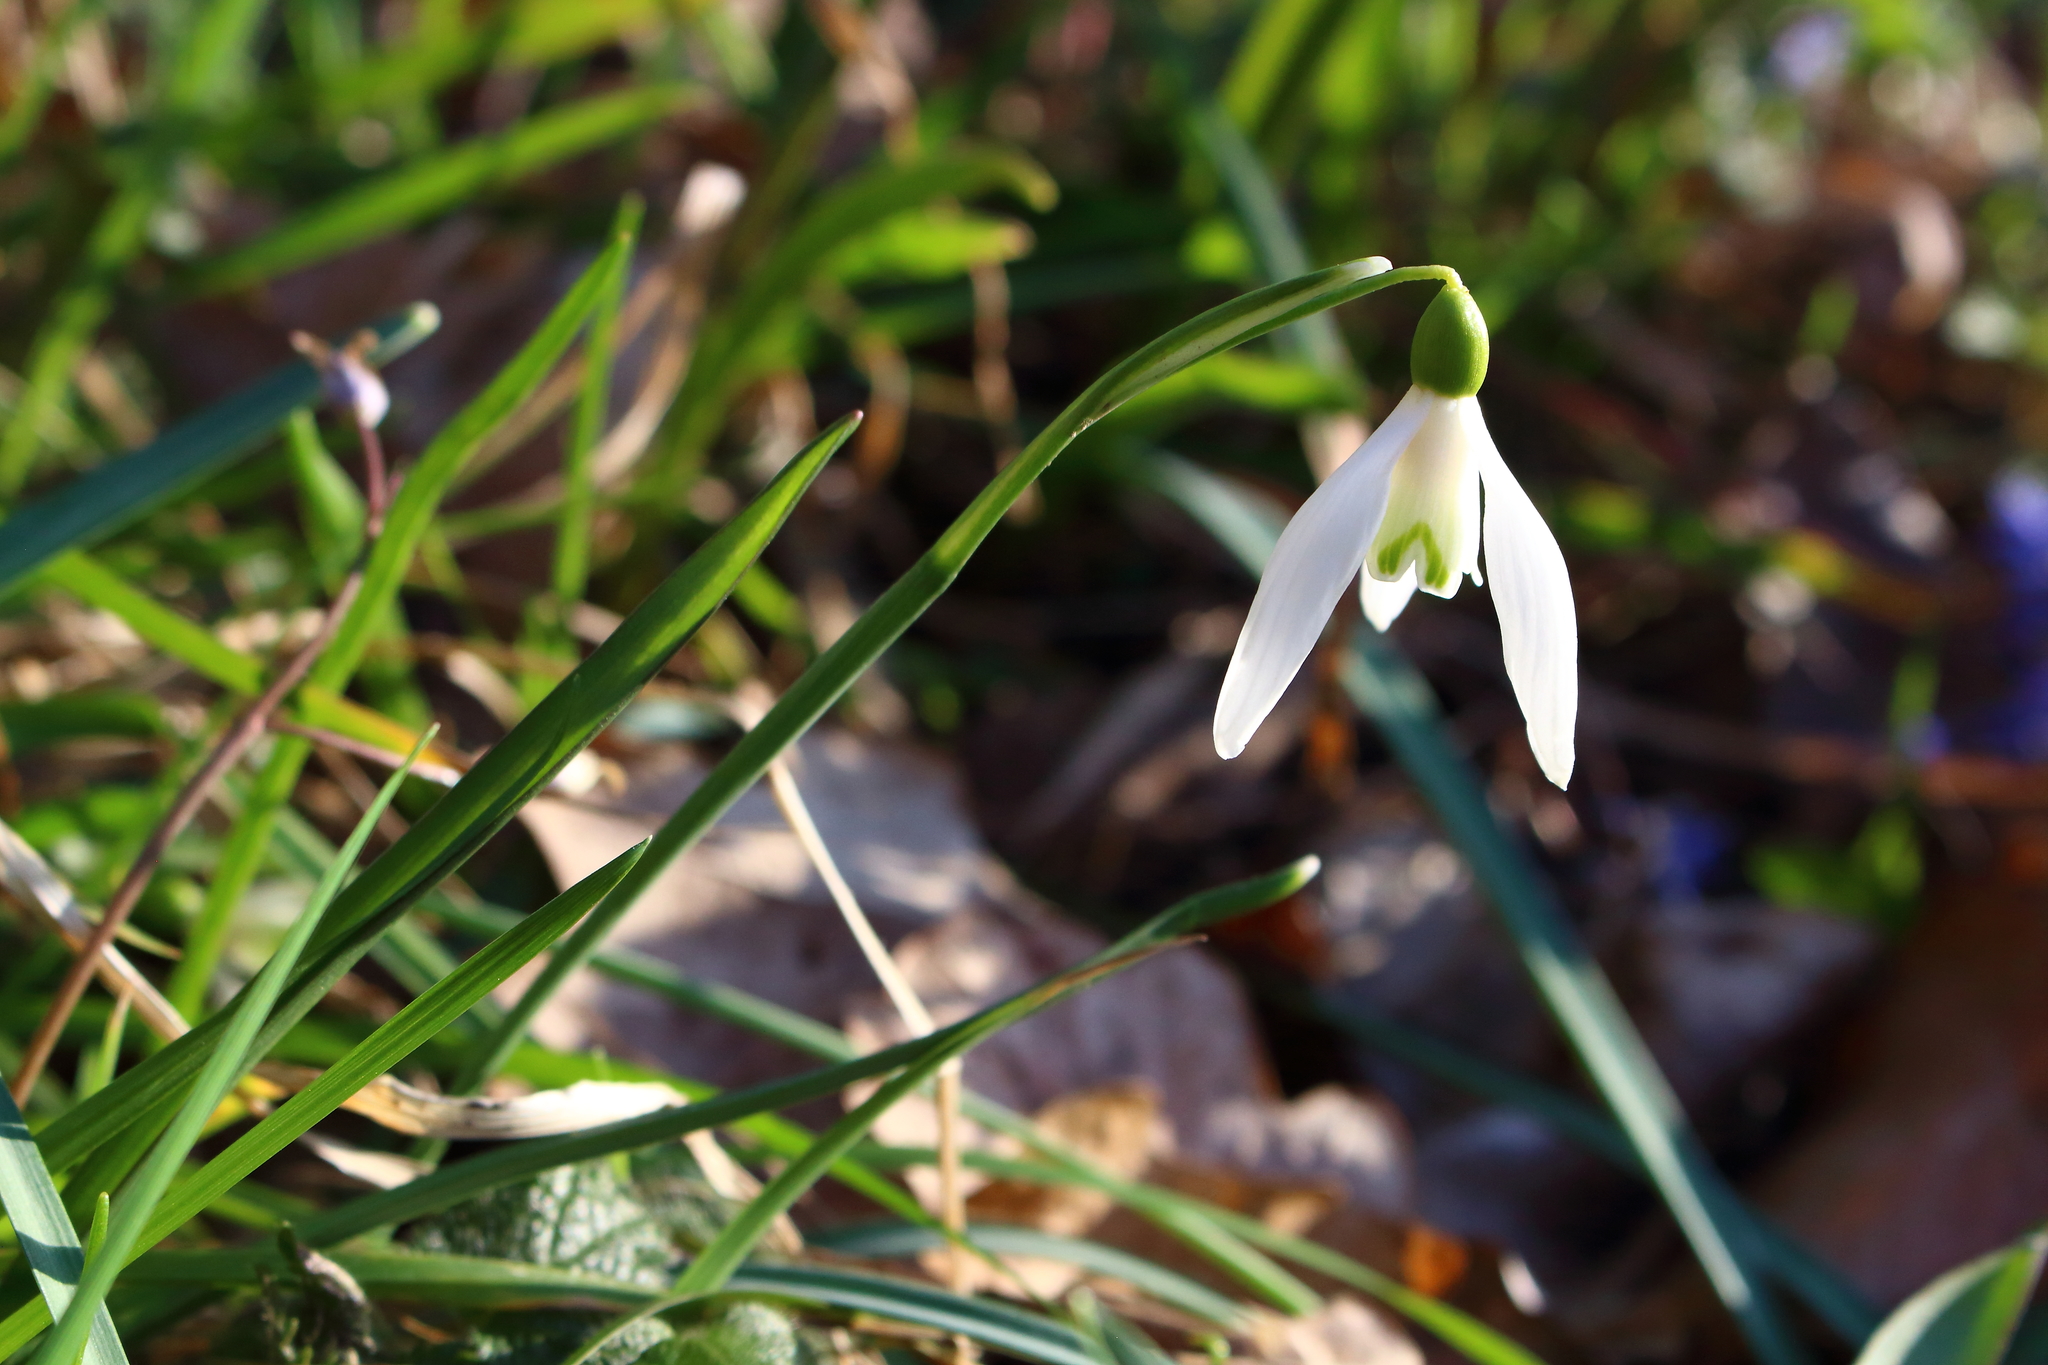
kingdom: Plantae
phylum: Tracheophyta
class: Liliopsida
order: Asparagales
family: Amaryllidaceae
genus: Galanthus
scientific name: Galanthus nivalis
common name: Snowdrop
